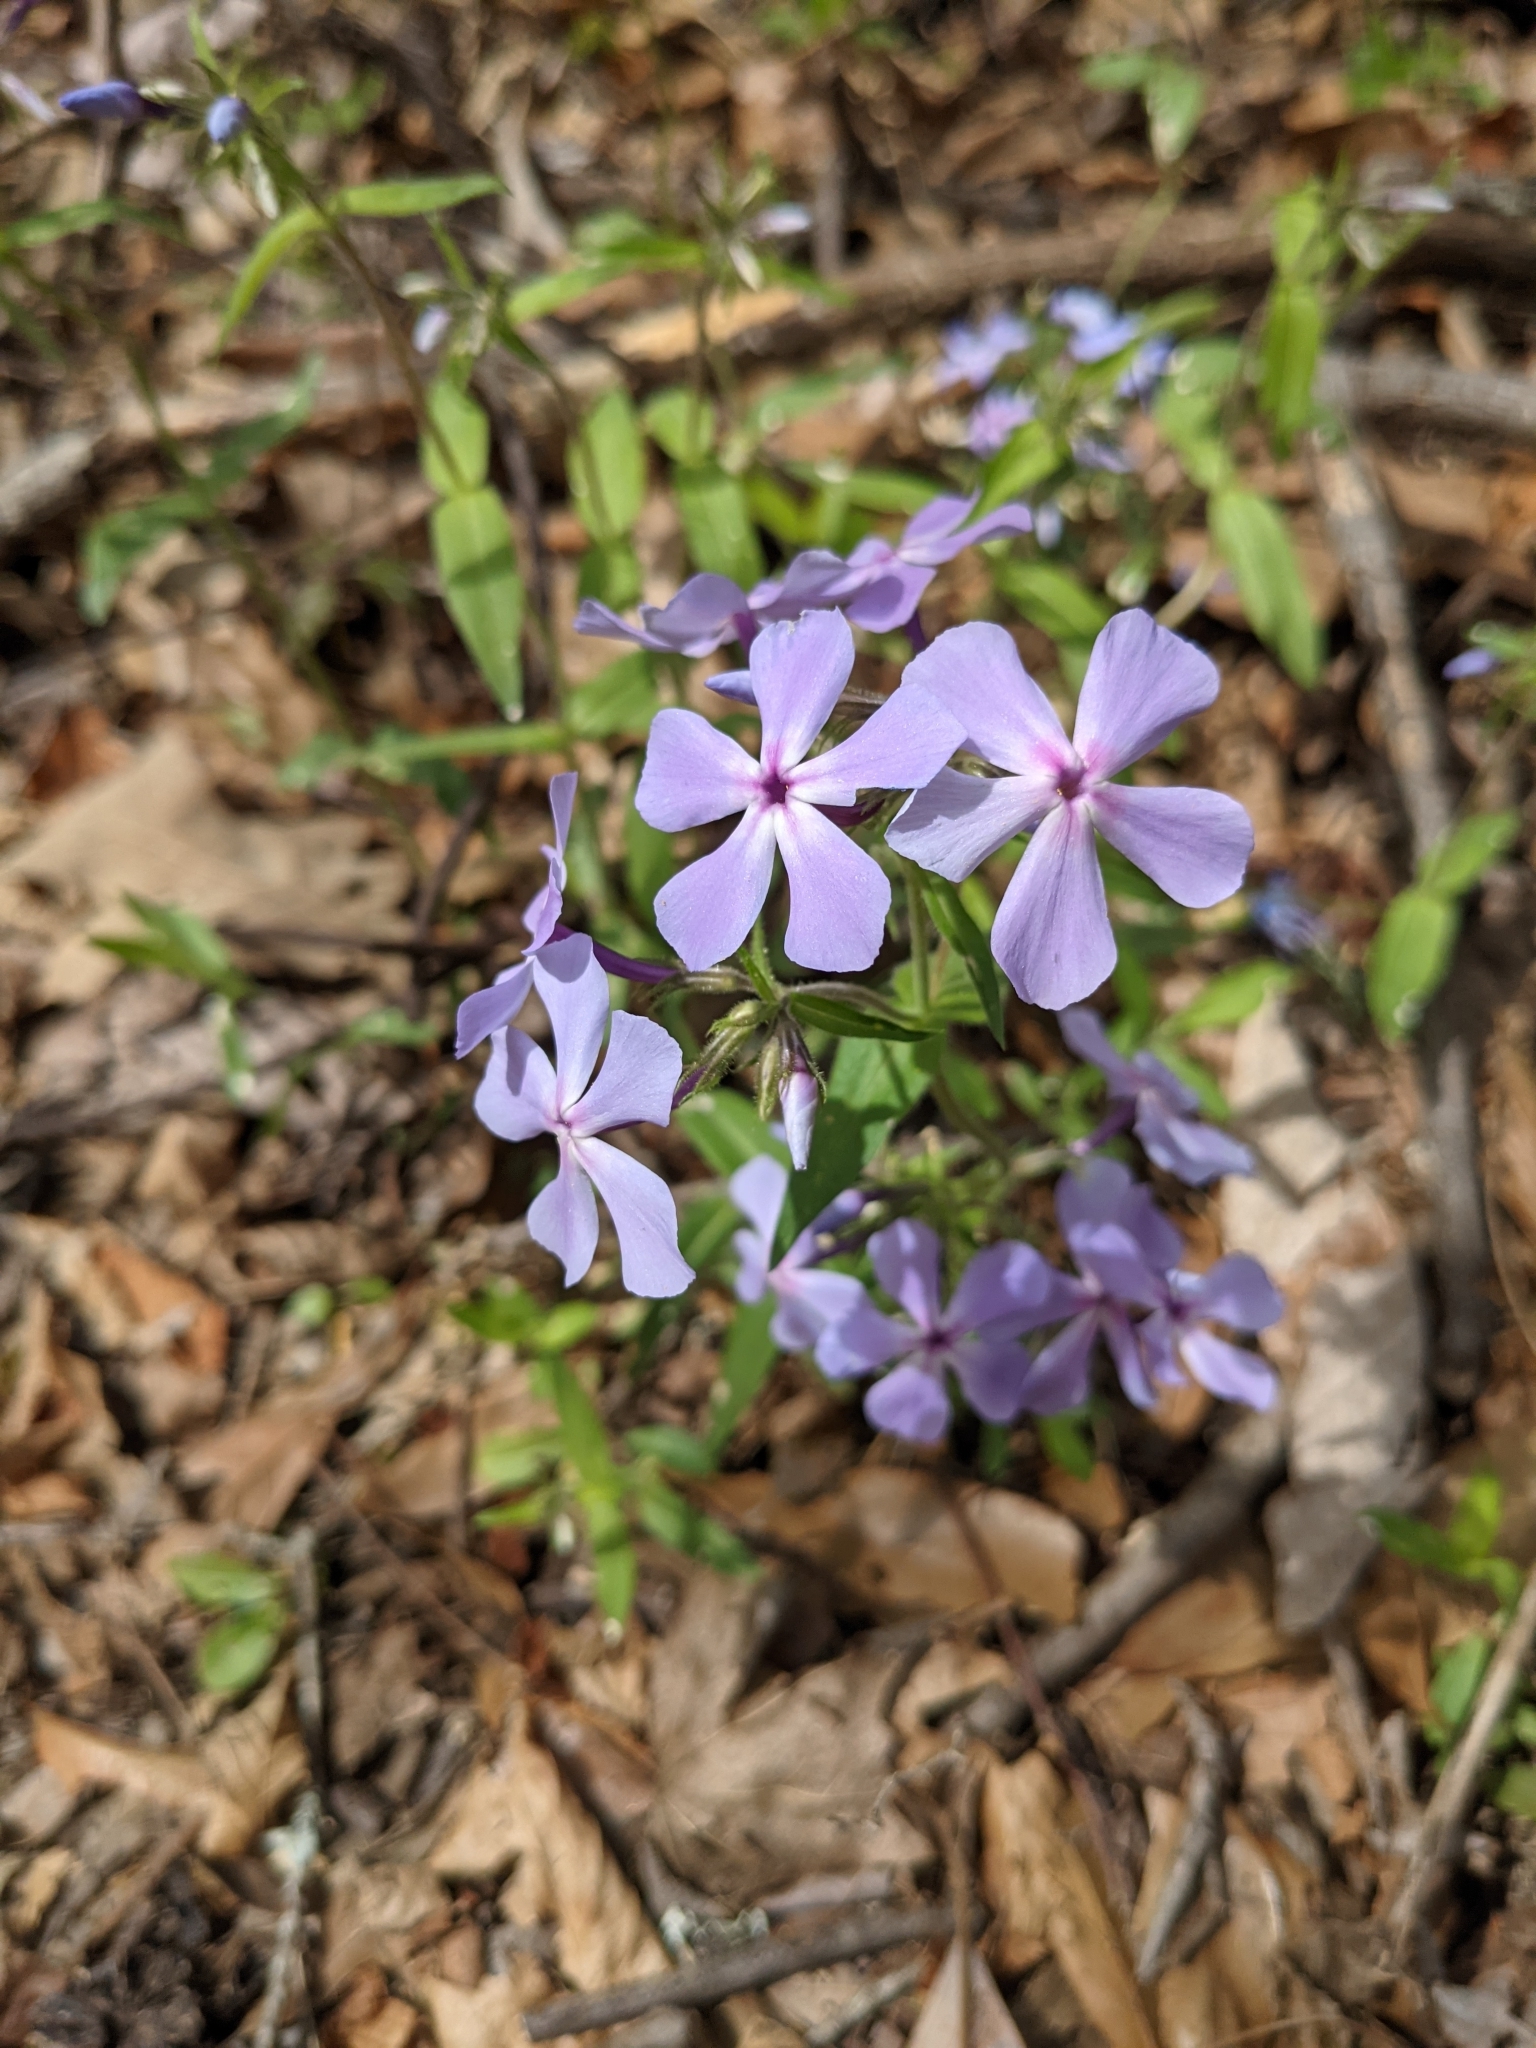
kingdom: Plantae
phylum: Tracheophyta
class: Magnoliopsida
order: Ericales
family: Polemoniaceae
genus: Phlox
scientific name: Phlox divaricata
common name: Blue phlox
